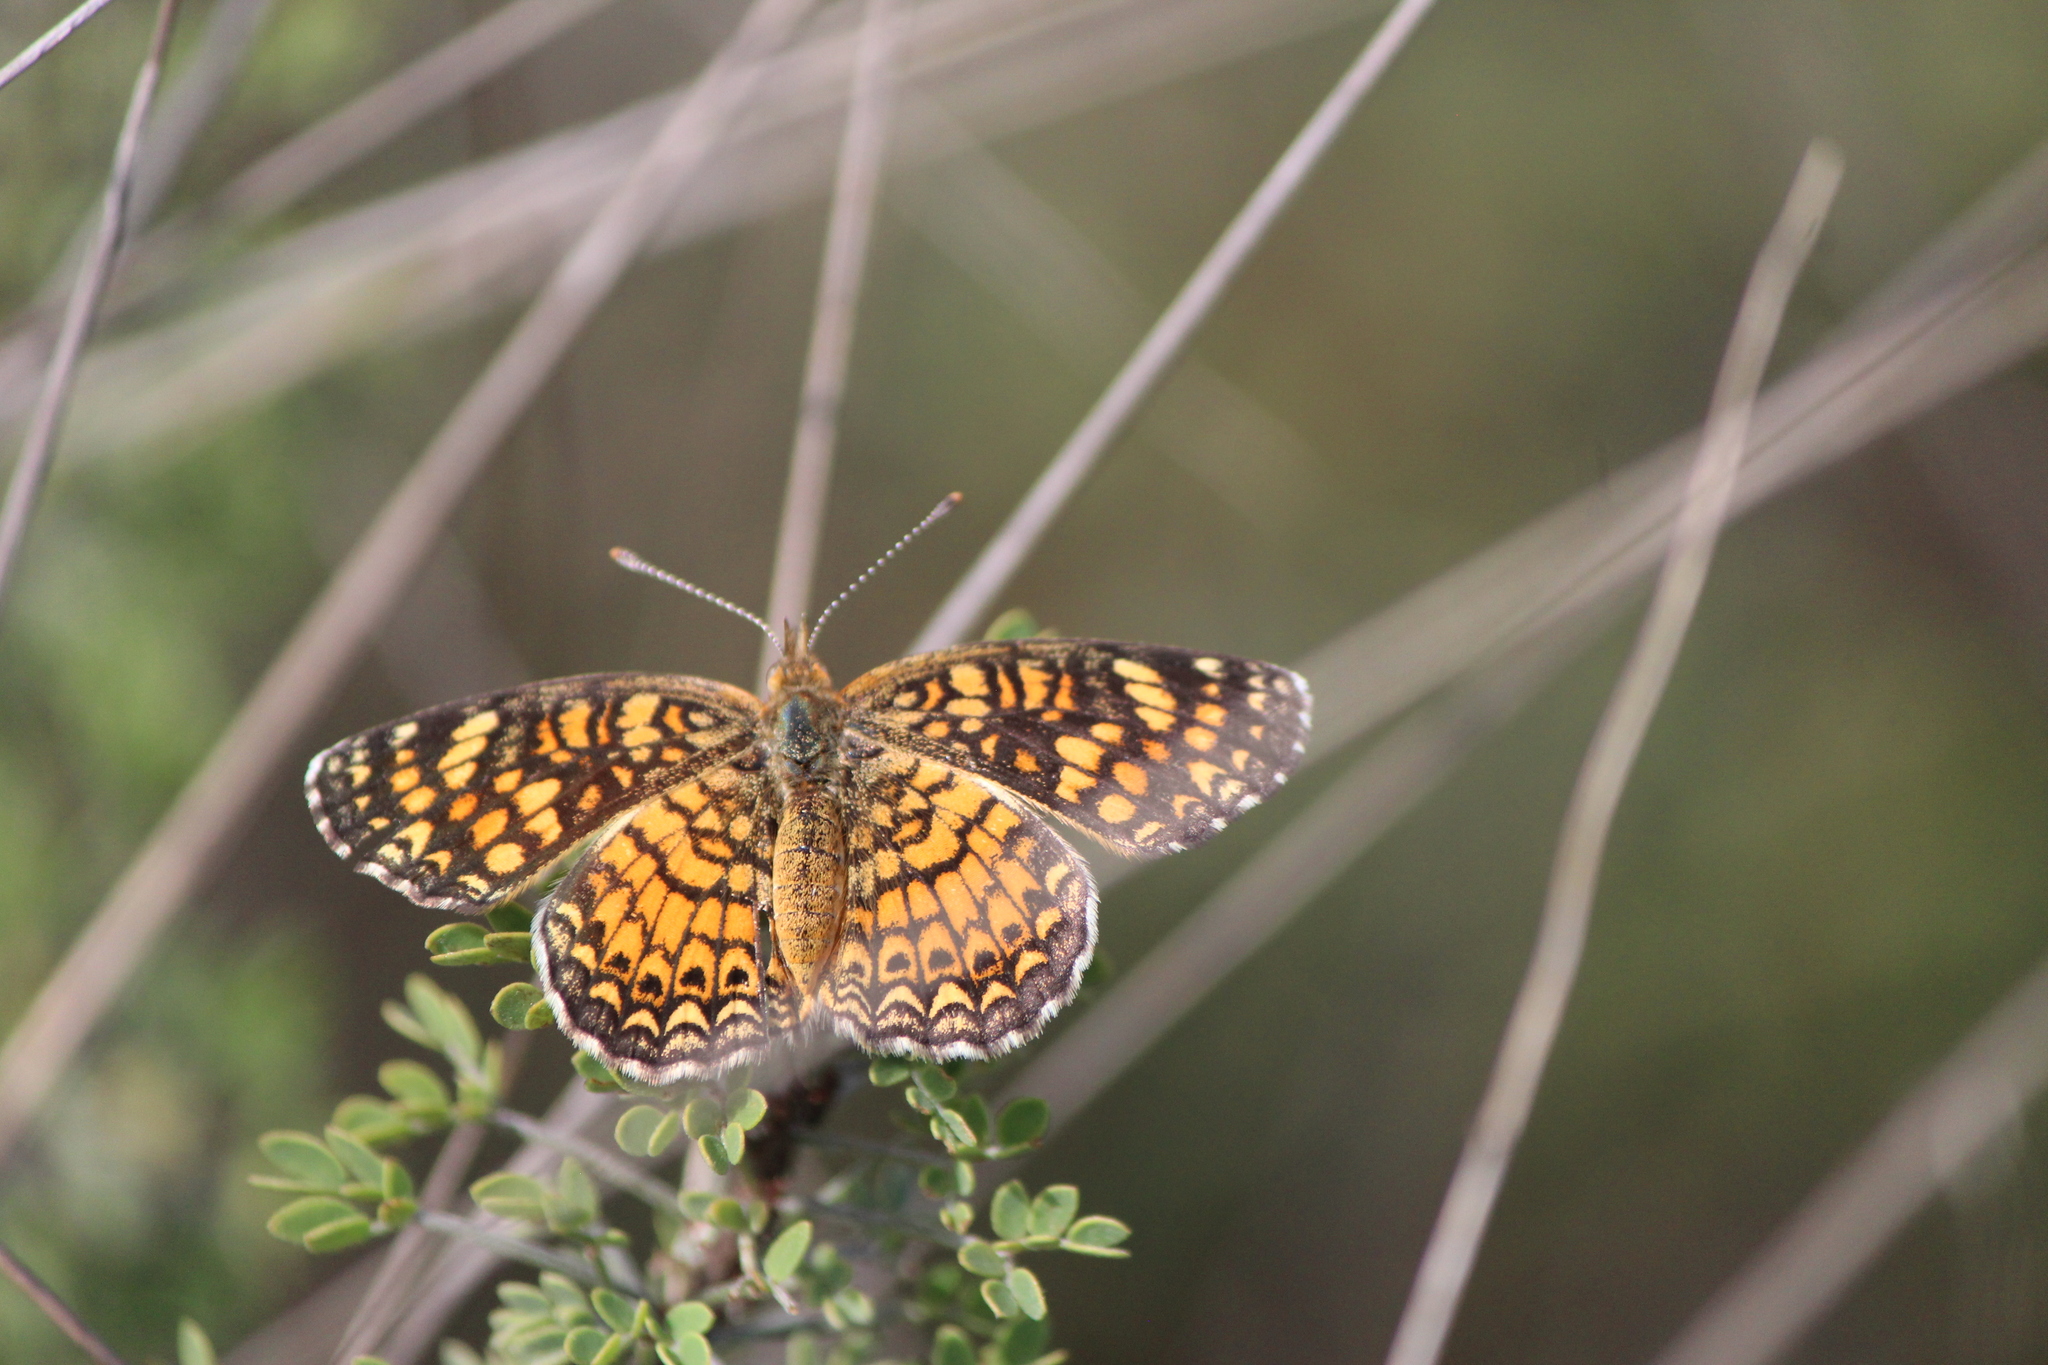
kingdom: Animalia
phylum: Arthropoda
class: Insecta
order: Lepidoptera
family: Nymphalidae
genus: Phyciodes
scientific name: Phyciodes vesta
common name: Vesta crescent
